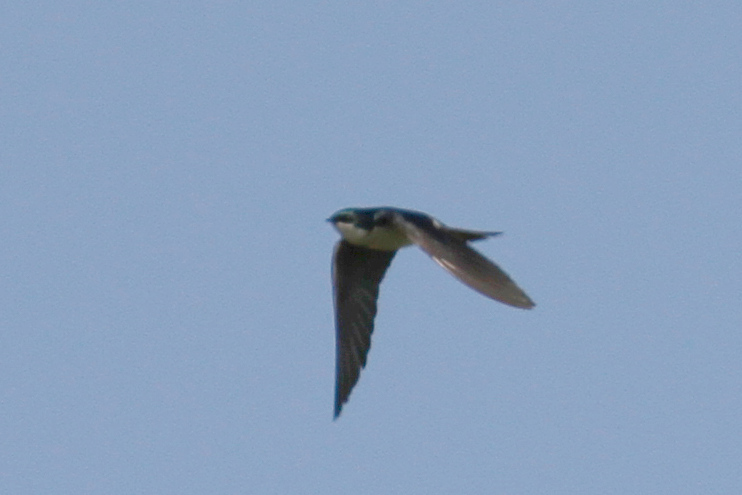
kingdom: Animalia
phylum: Chordata
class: Aves
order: Passeriformes
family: Hirundinidae
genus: Tachycineta
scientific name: Tachycineta bicolor
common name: Tree swallow
